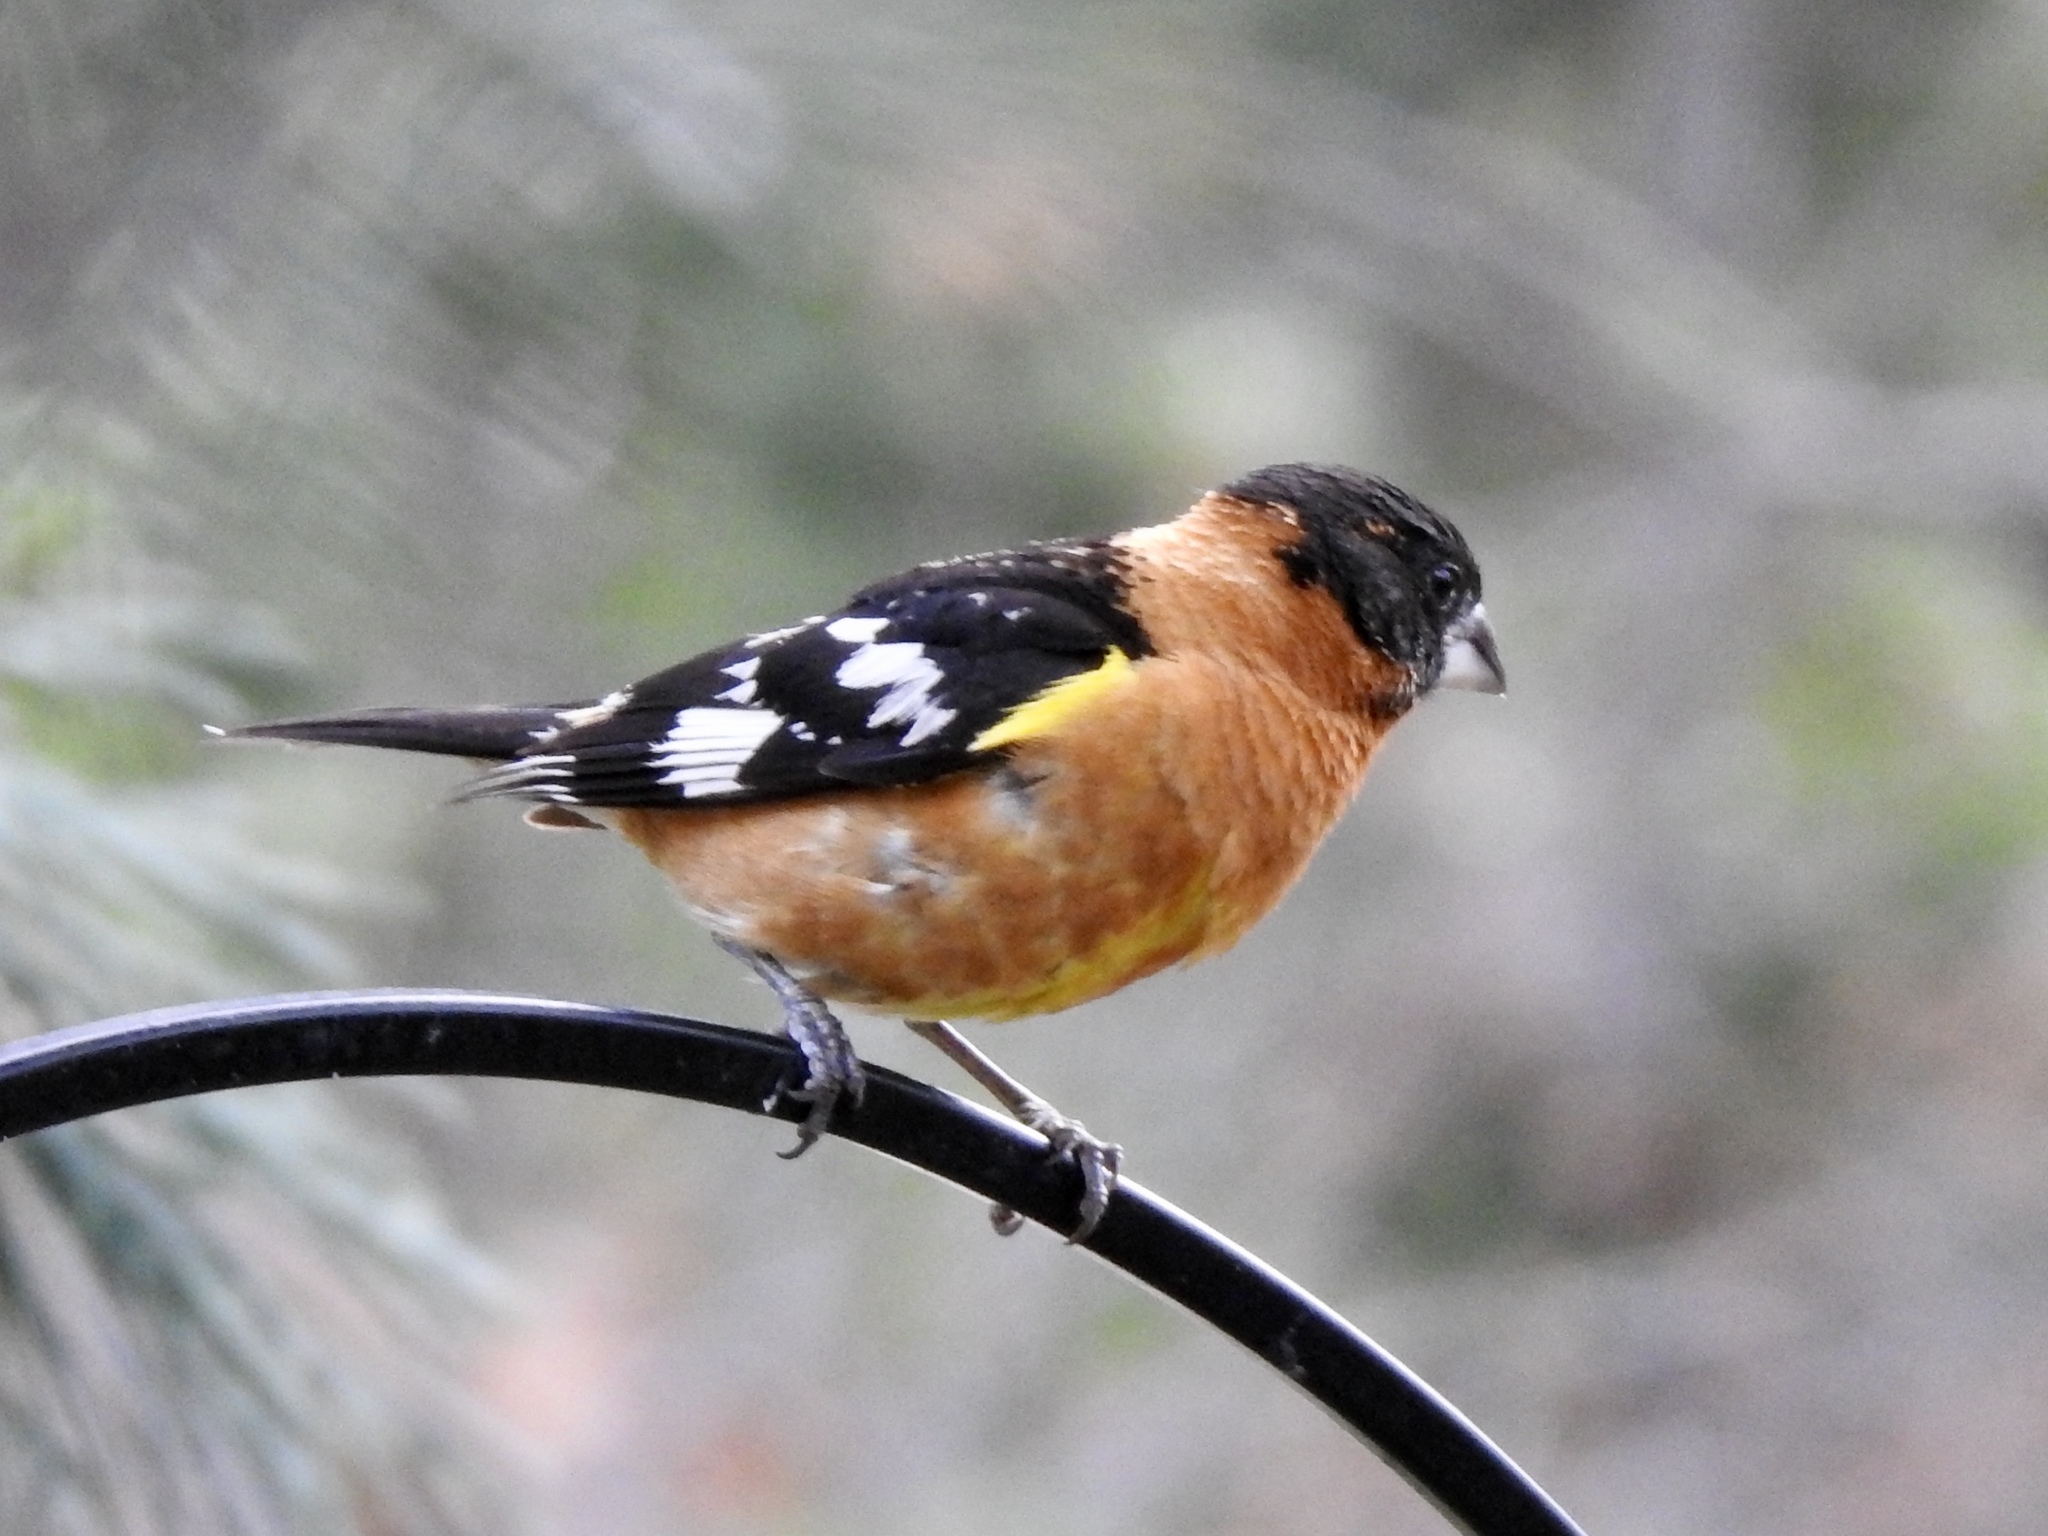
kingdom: Animalia
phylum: Chordata
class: Aves
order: Passeriformes
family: Cardinalidae
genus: Pheucticus
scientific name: Pheucticus melanocephalus
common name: Black-headed grosbeak
